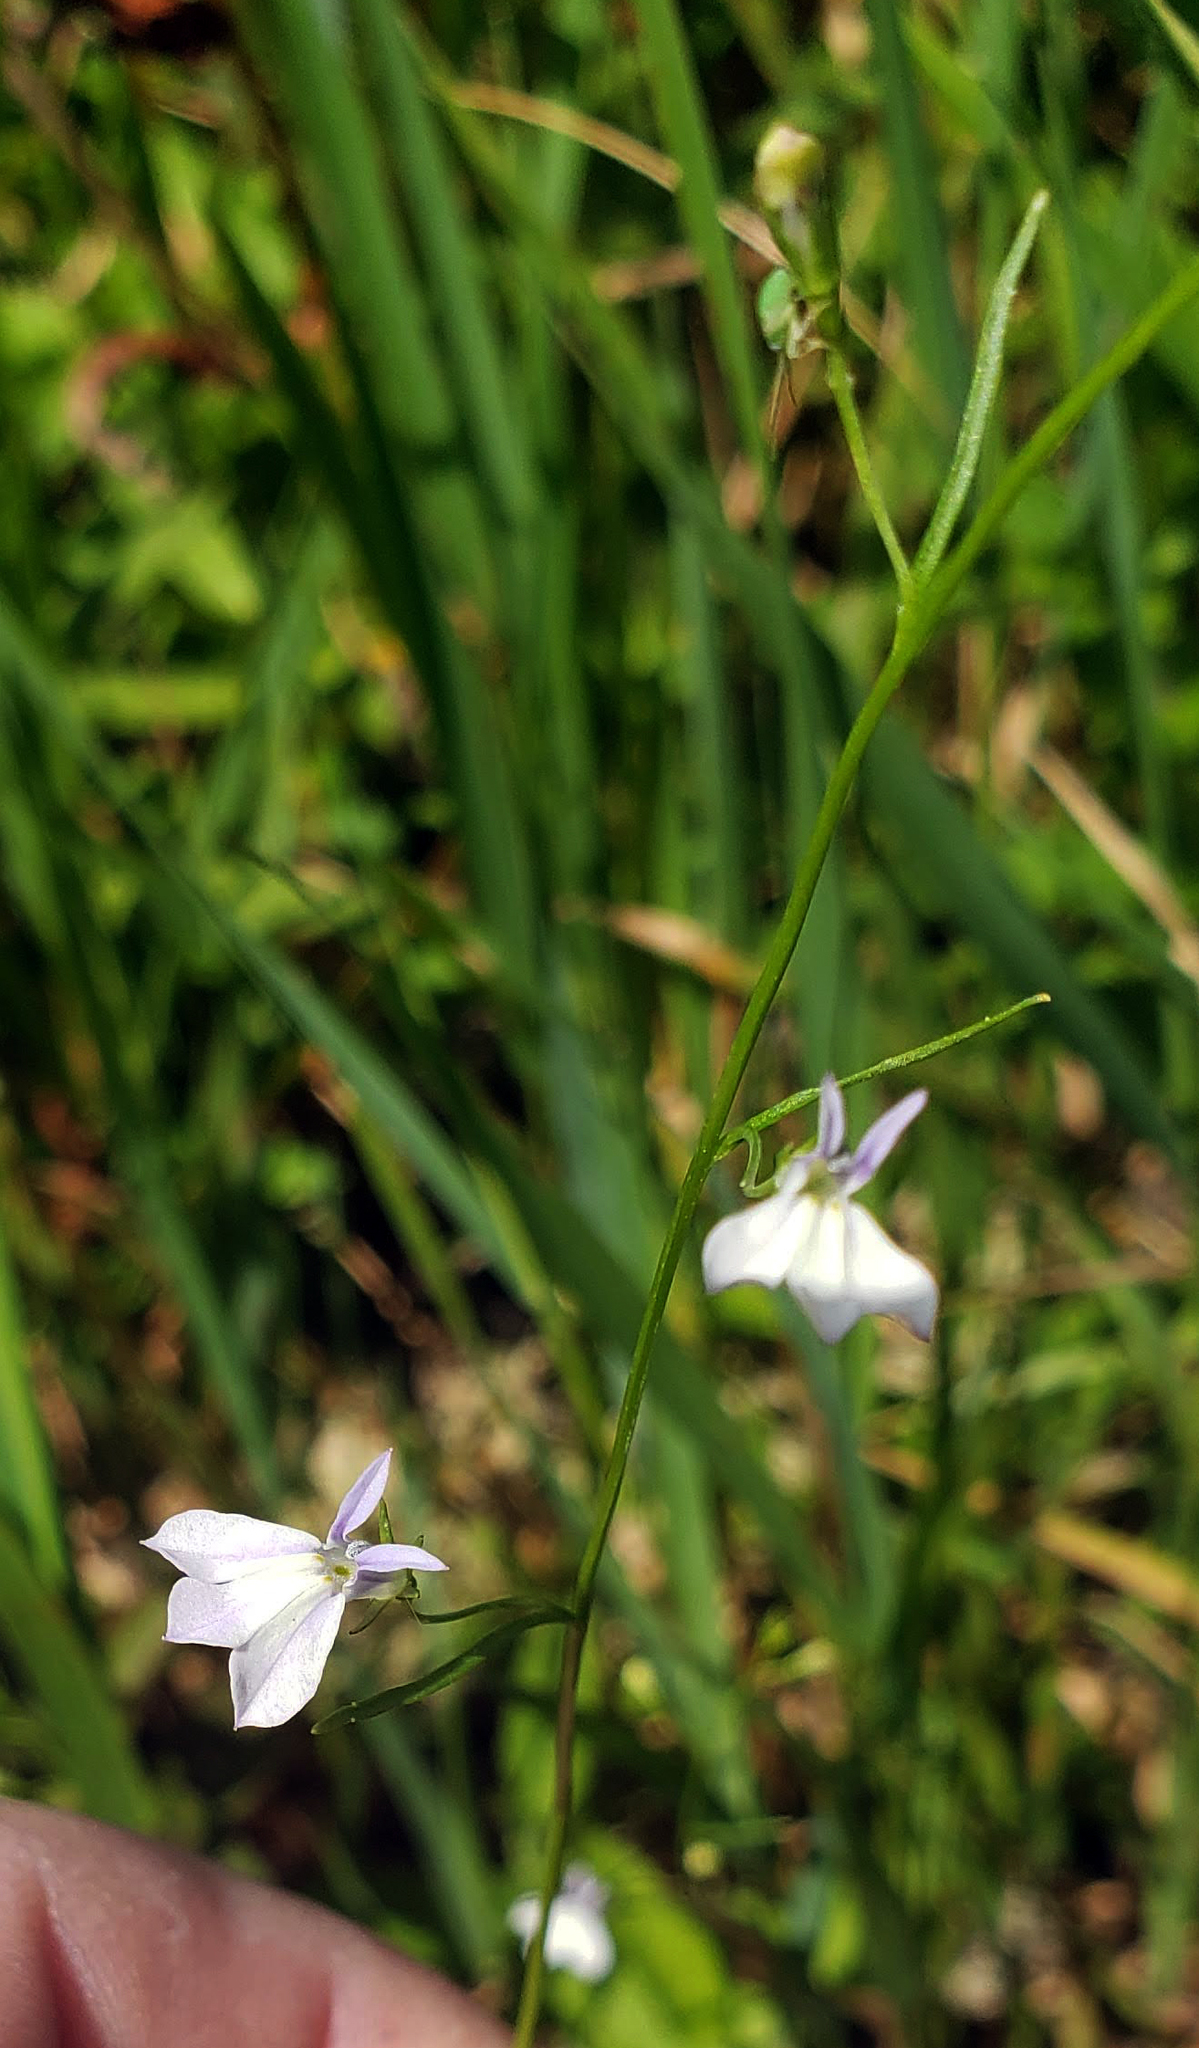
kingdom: Plantae
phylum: Tracheophyta
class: Magnoliopsida
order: Asterales
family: Campanulaceae
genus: Lobelia
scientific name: Lobelia kalmii
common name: Kalm's lobelia
